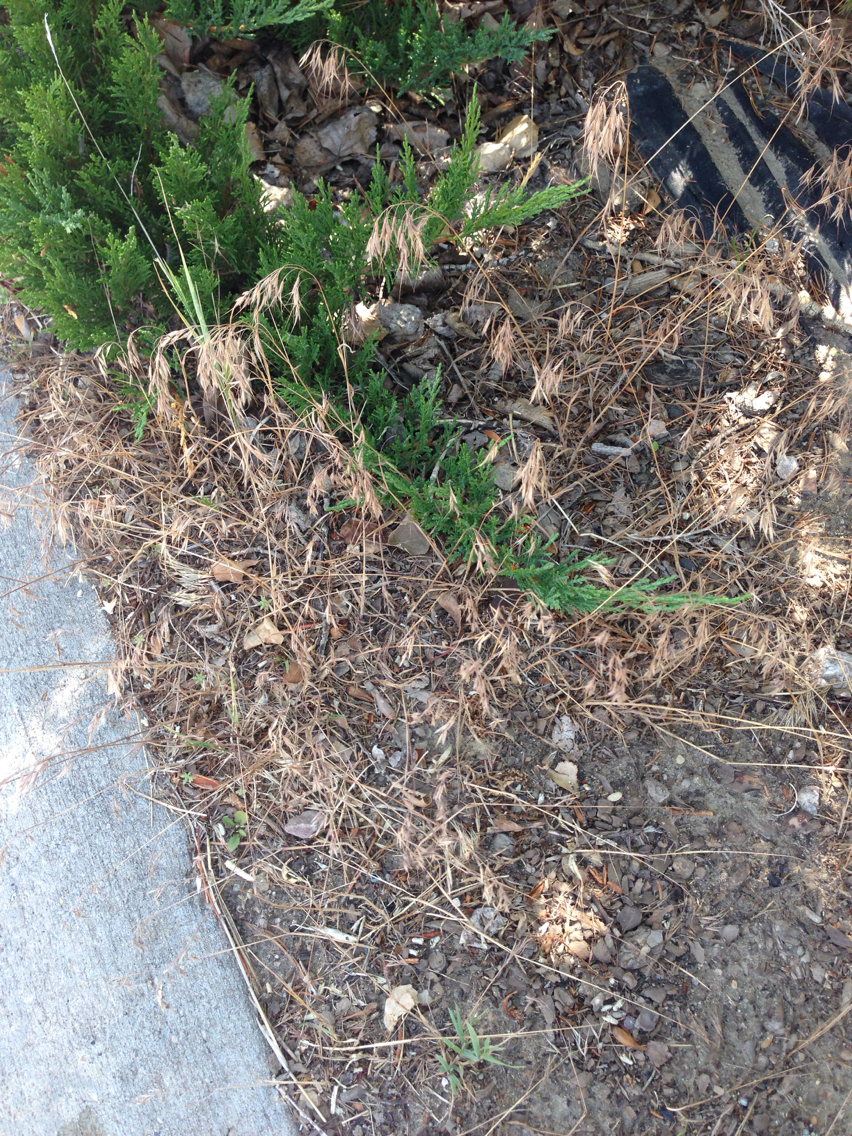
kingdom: Plantae
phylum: Tracheophyta
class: Liliopsida
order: Poales
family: Poaceae
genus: Bromus
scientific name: Bromus tectorum
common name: Cheatgrass
